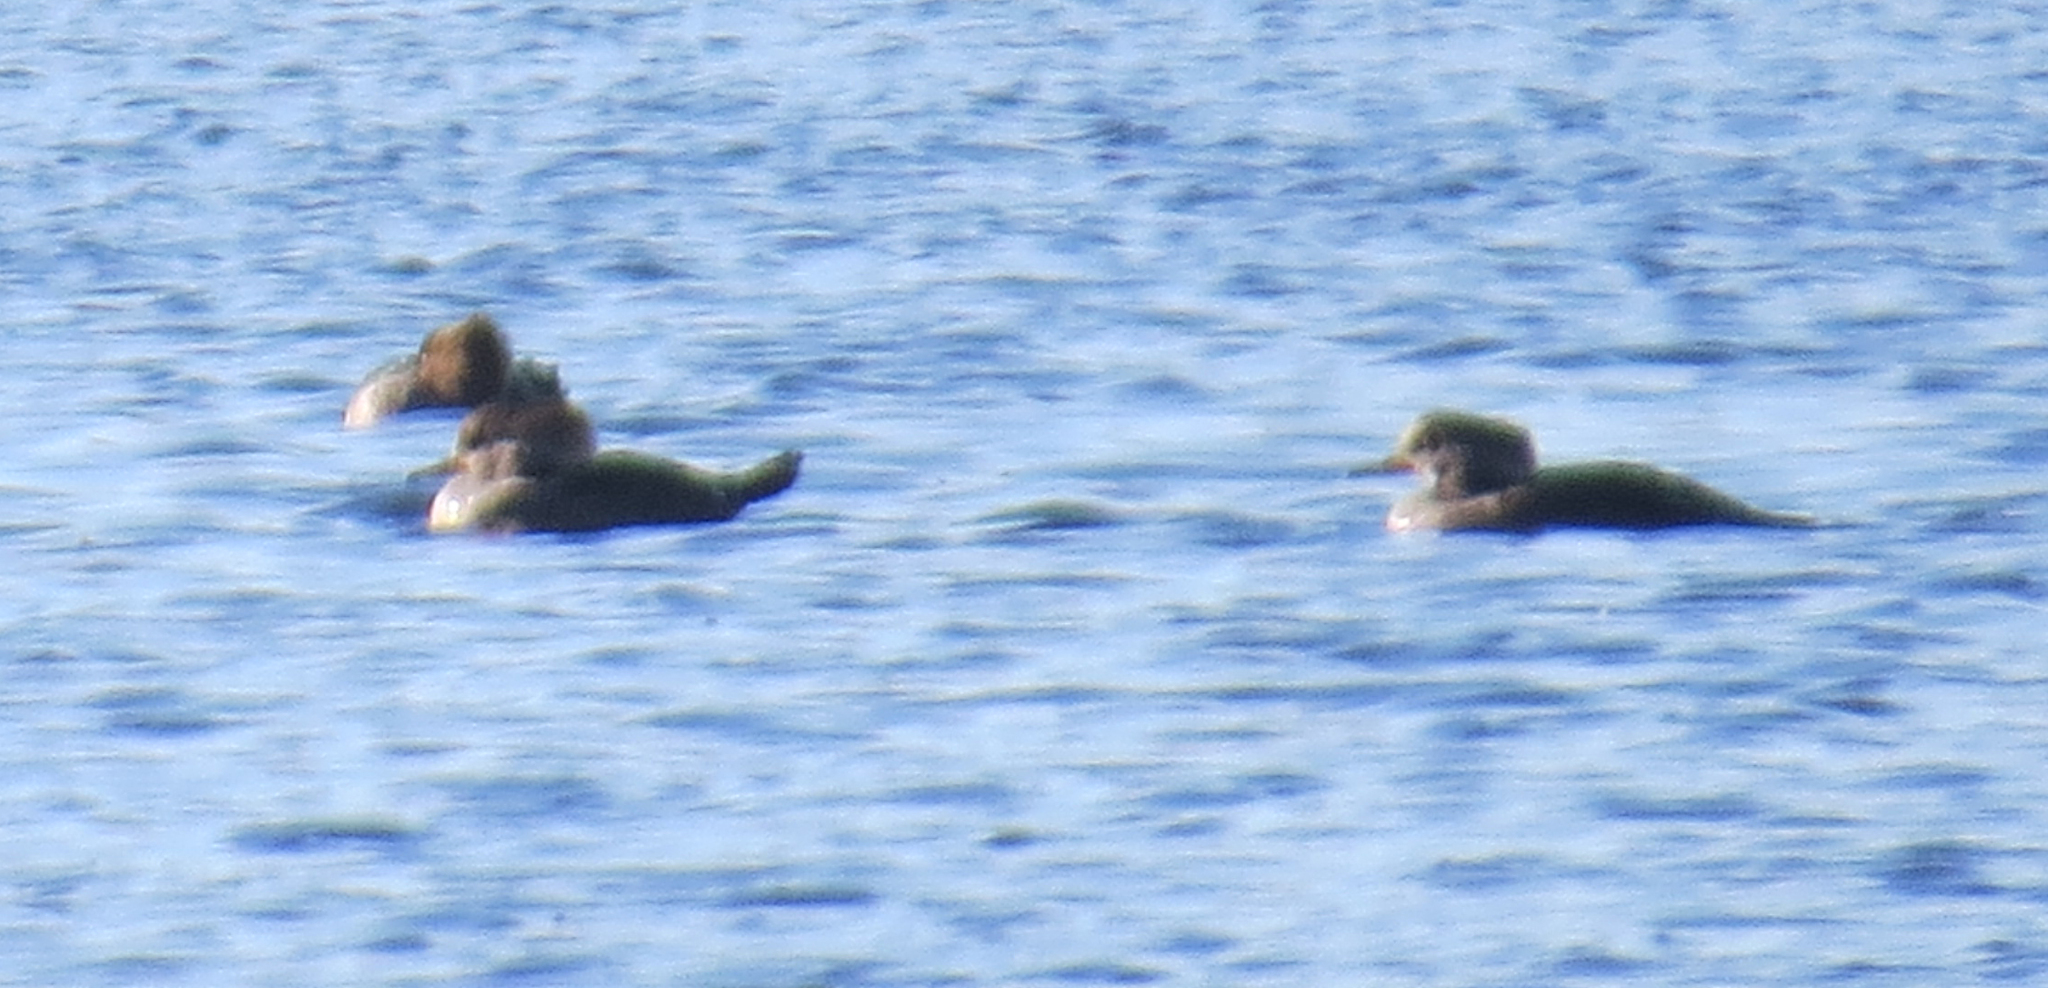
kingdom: Animalia
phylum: Chordata
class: Aves
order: Anseriformes
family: Anatidae
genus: Lophodytes
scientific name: Lophodytes cucullatus
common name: Hooded merganser
